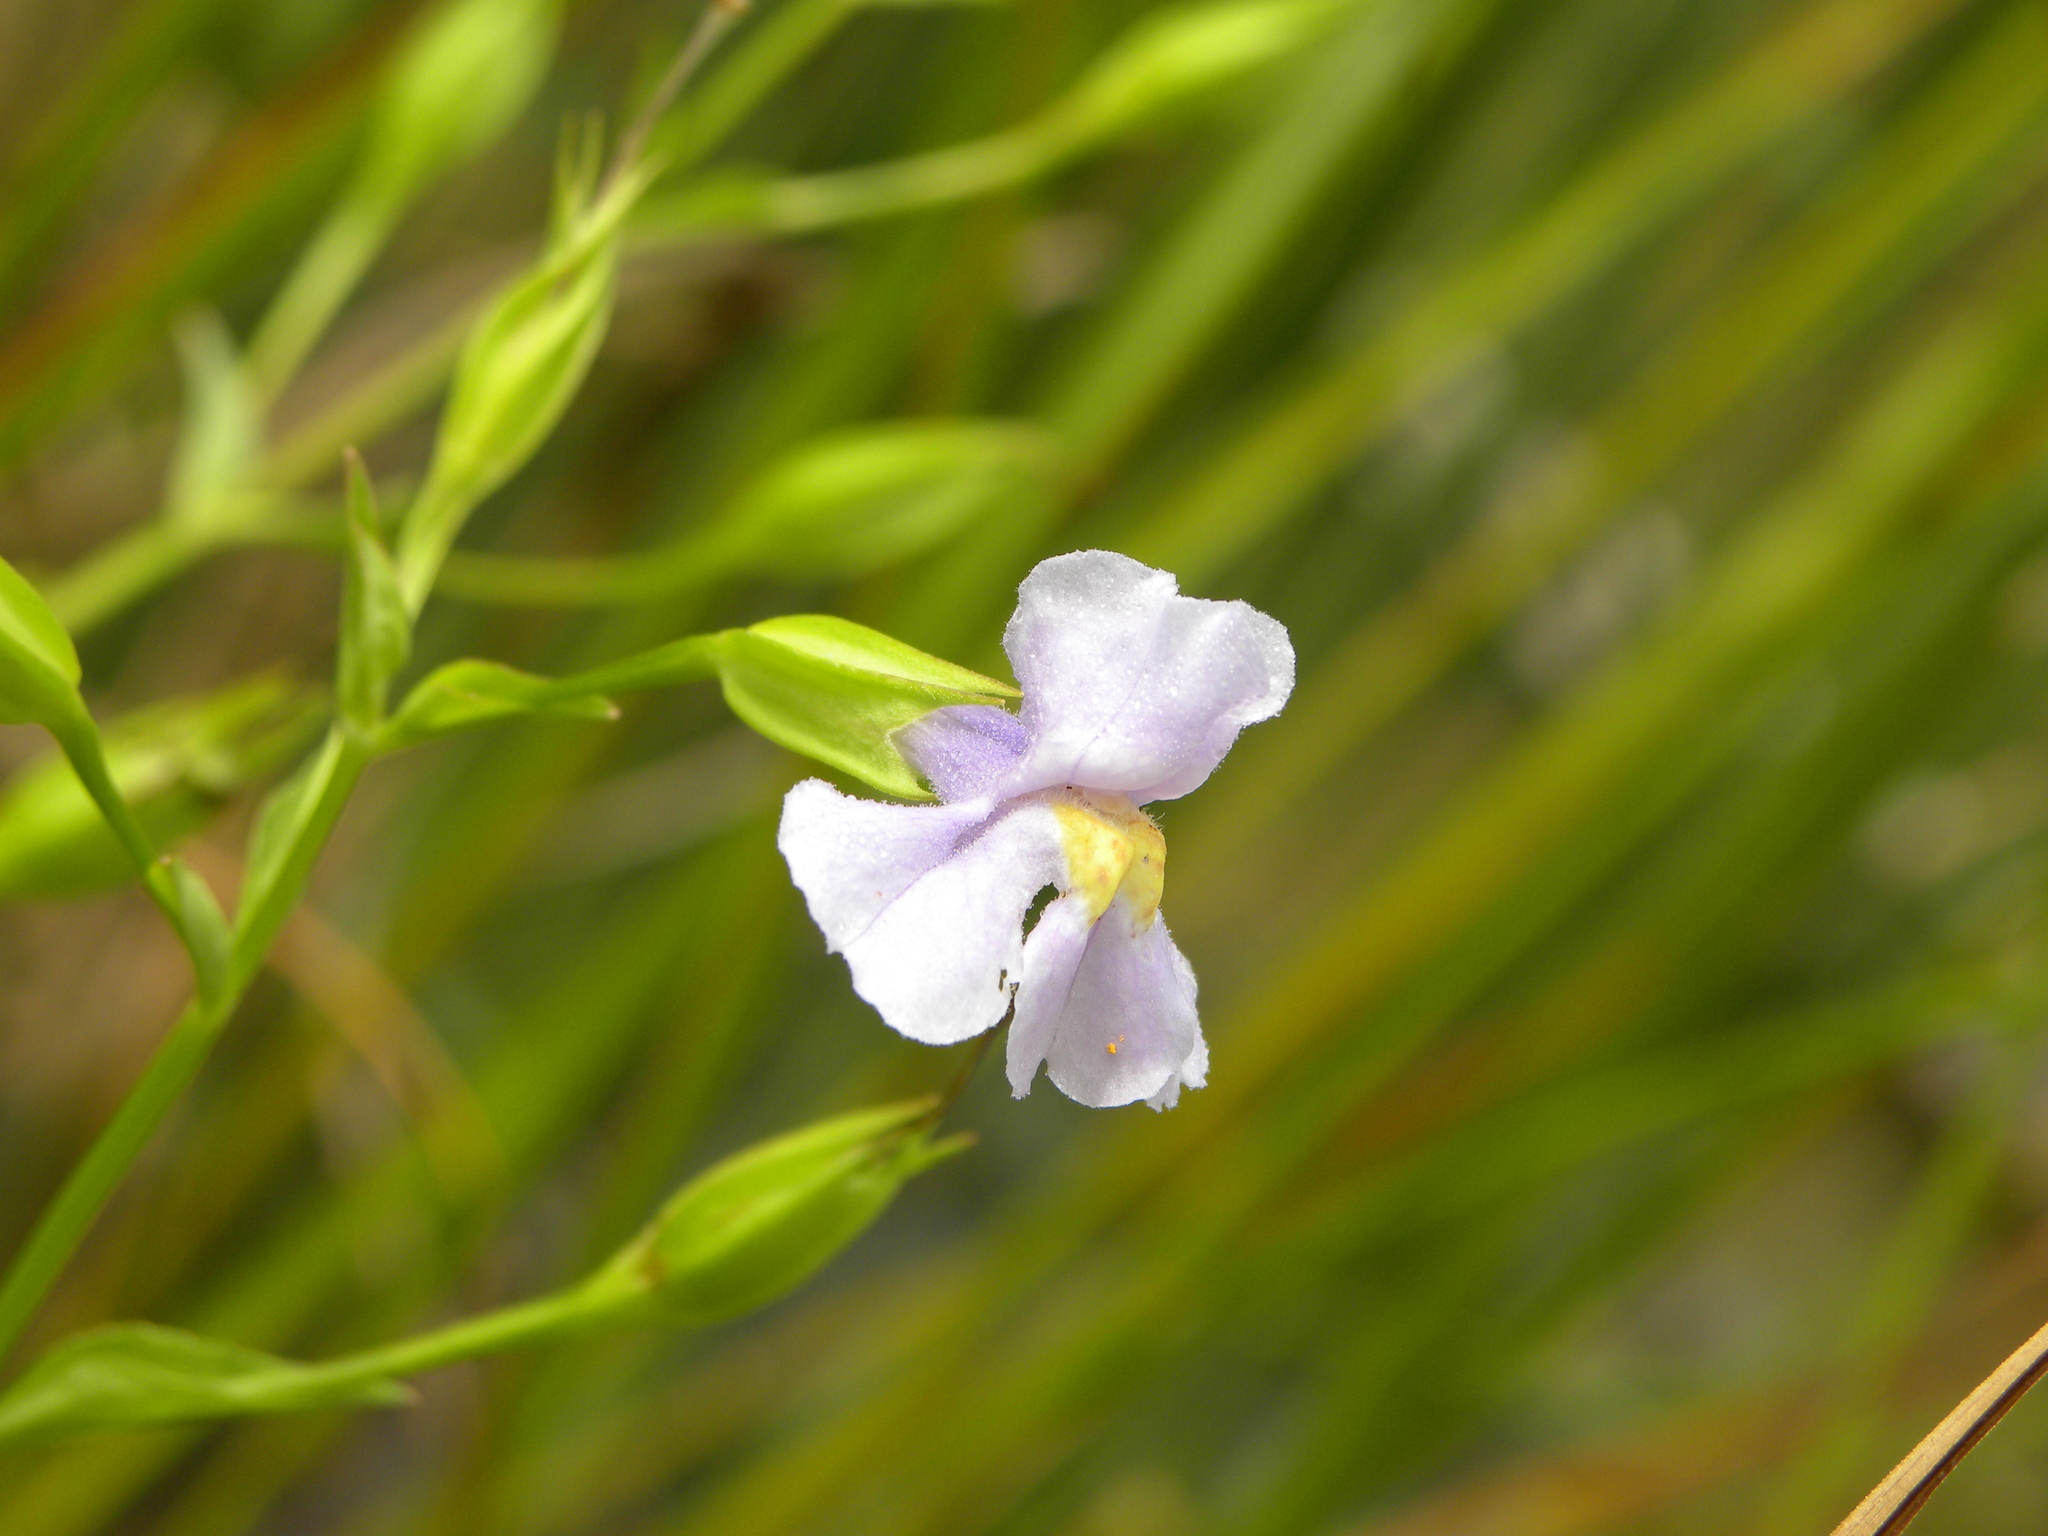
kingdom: Plantae
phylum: Tracheophyta
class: Magnoliopsida
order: Lamiales
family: Phrymaceae
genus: Mimulus
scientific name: Mimulus ringens
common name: Allegheny monkeyflower
